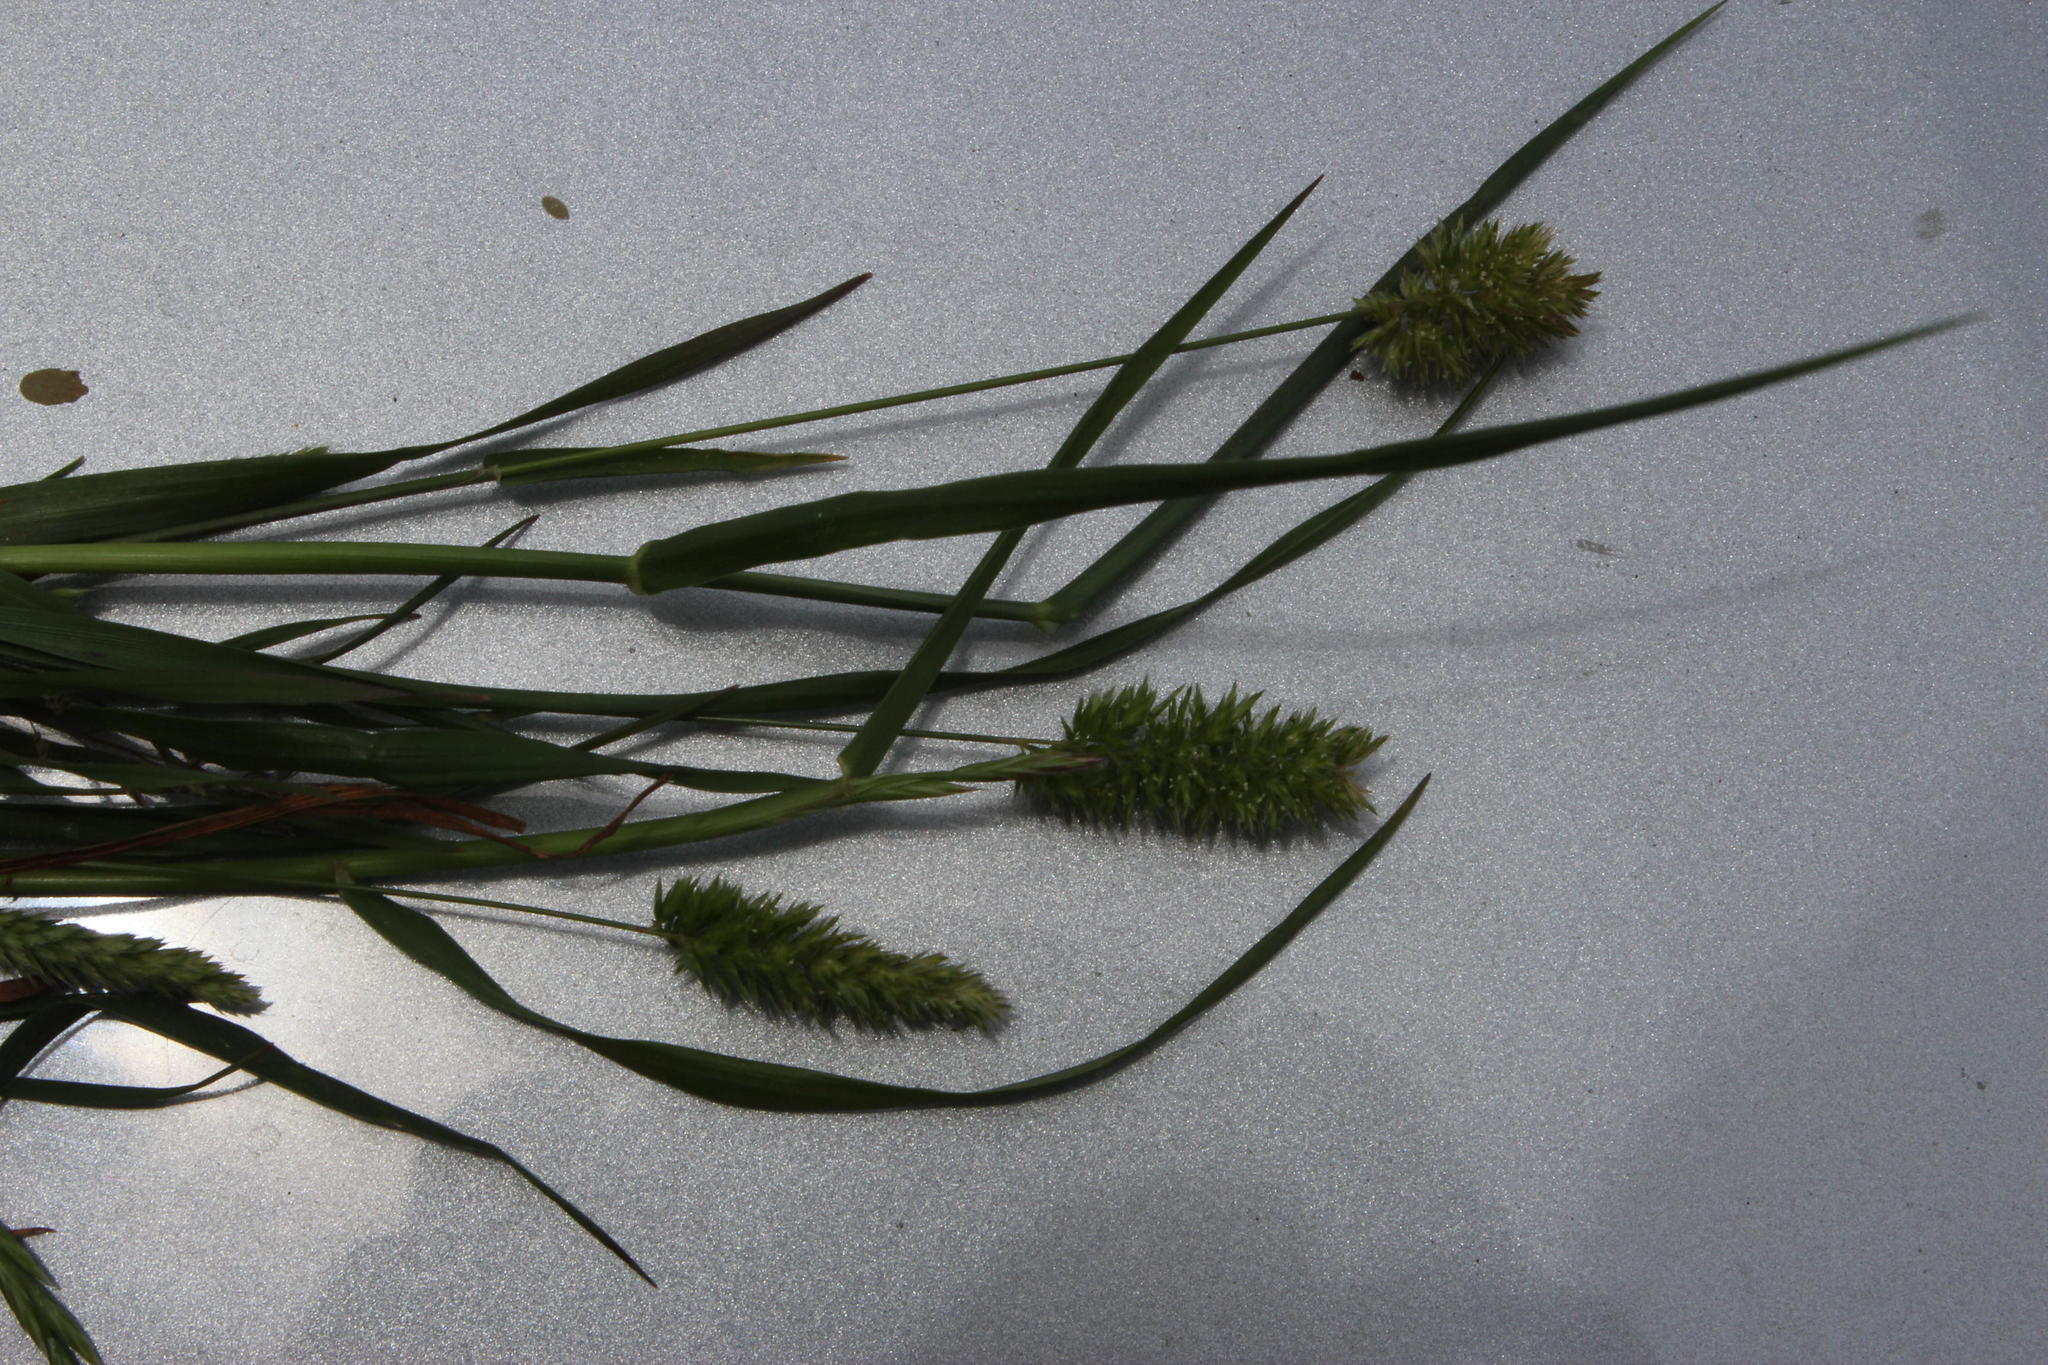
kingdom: Plantae
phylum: Tracheophyta
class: Liliopsida
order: Poales
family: Poaceae
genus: Setaria
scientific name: Setaria verticillata
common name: Hooked bristlegrass
